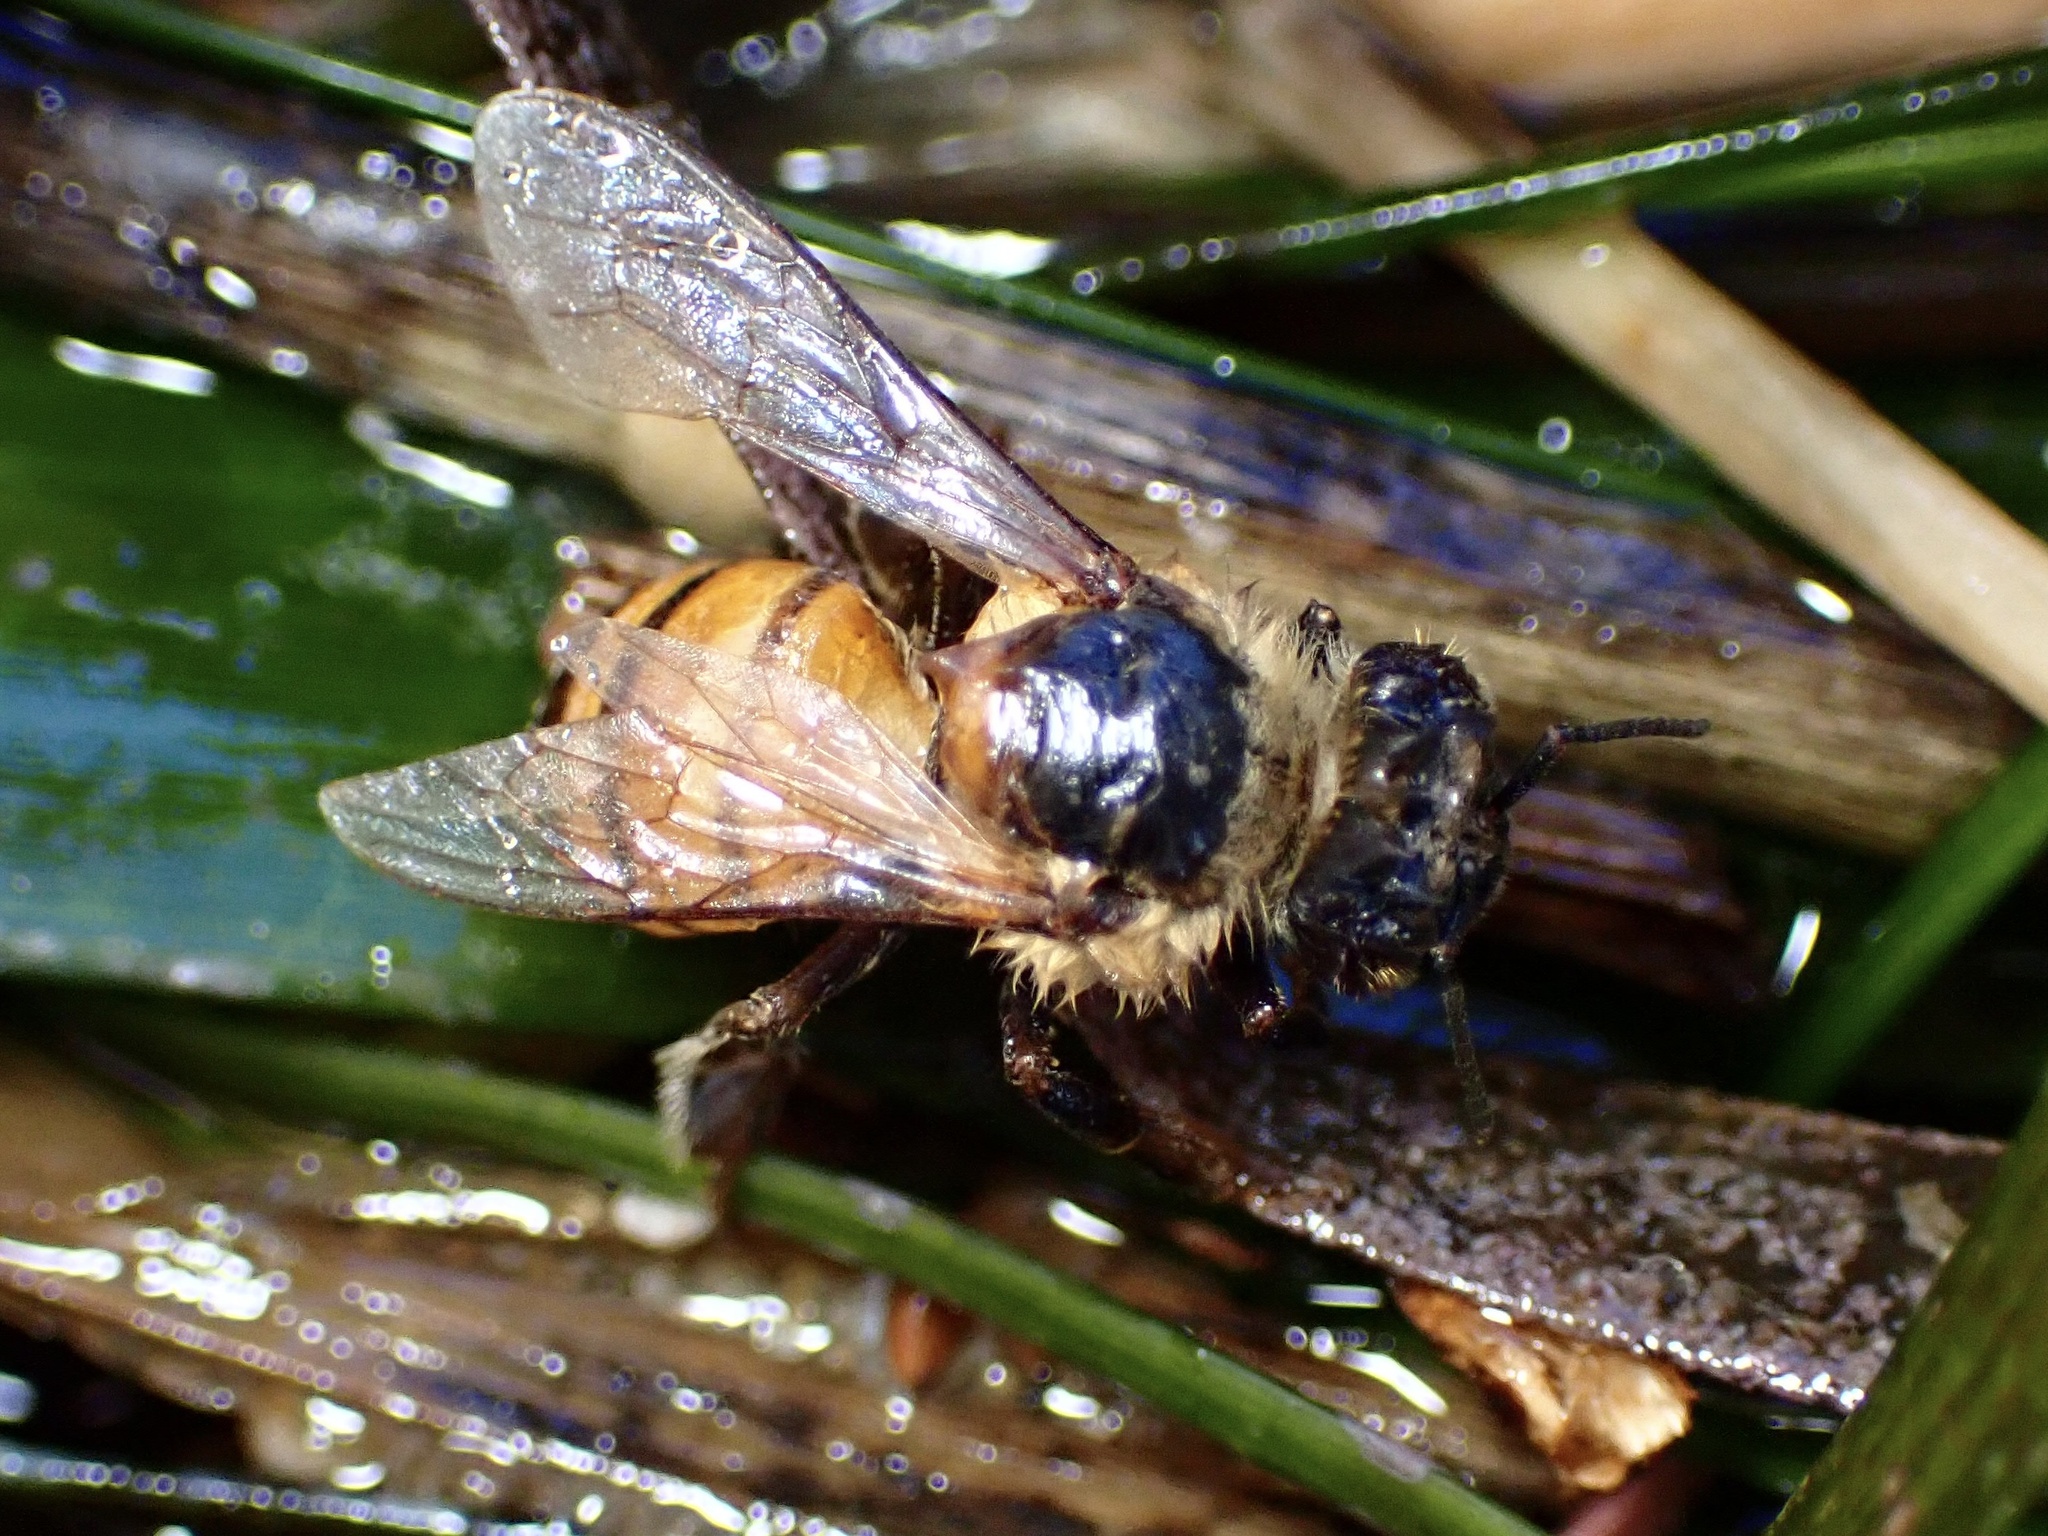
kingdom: Animalia
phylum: Arthropoda
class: Insecta
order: Hymenoptera
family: Apidae
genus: Apis
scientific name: Apis mellifera
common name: Honey bee
